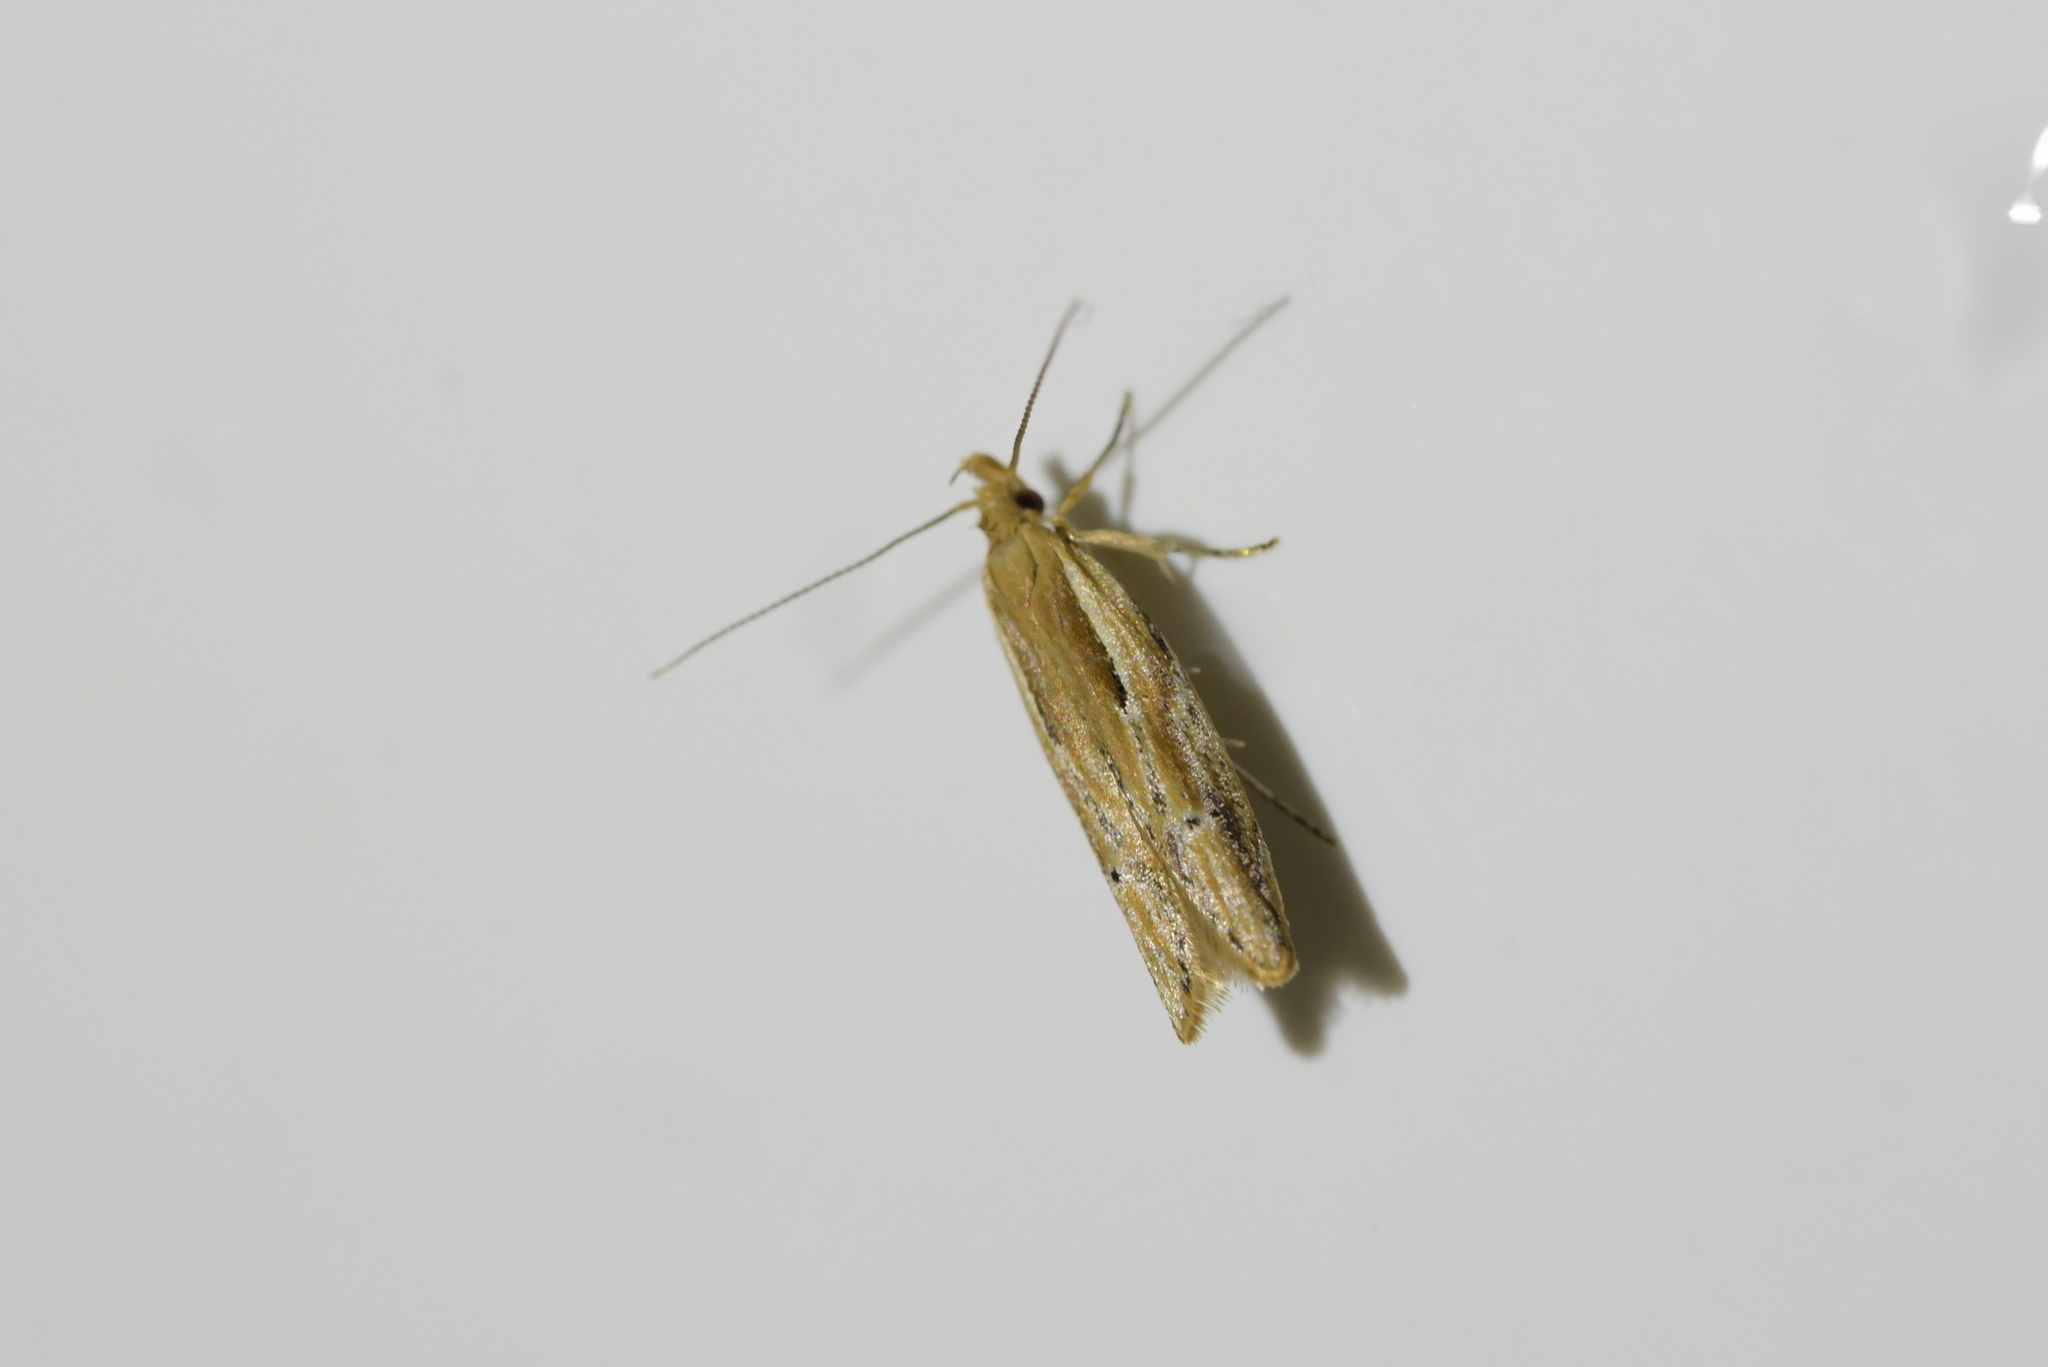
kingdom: Animalia
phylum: Arthropoda
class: Insecta
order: Lepidoptera
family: Depressariidae
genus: Eutorna
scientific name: Eutorna symmorpha
